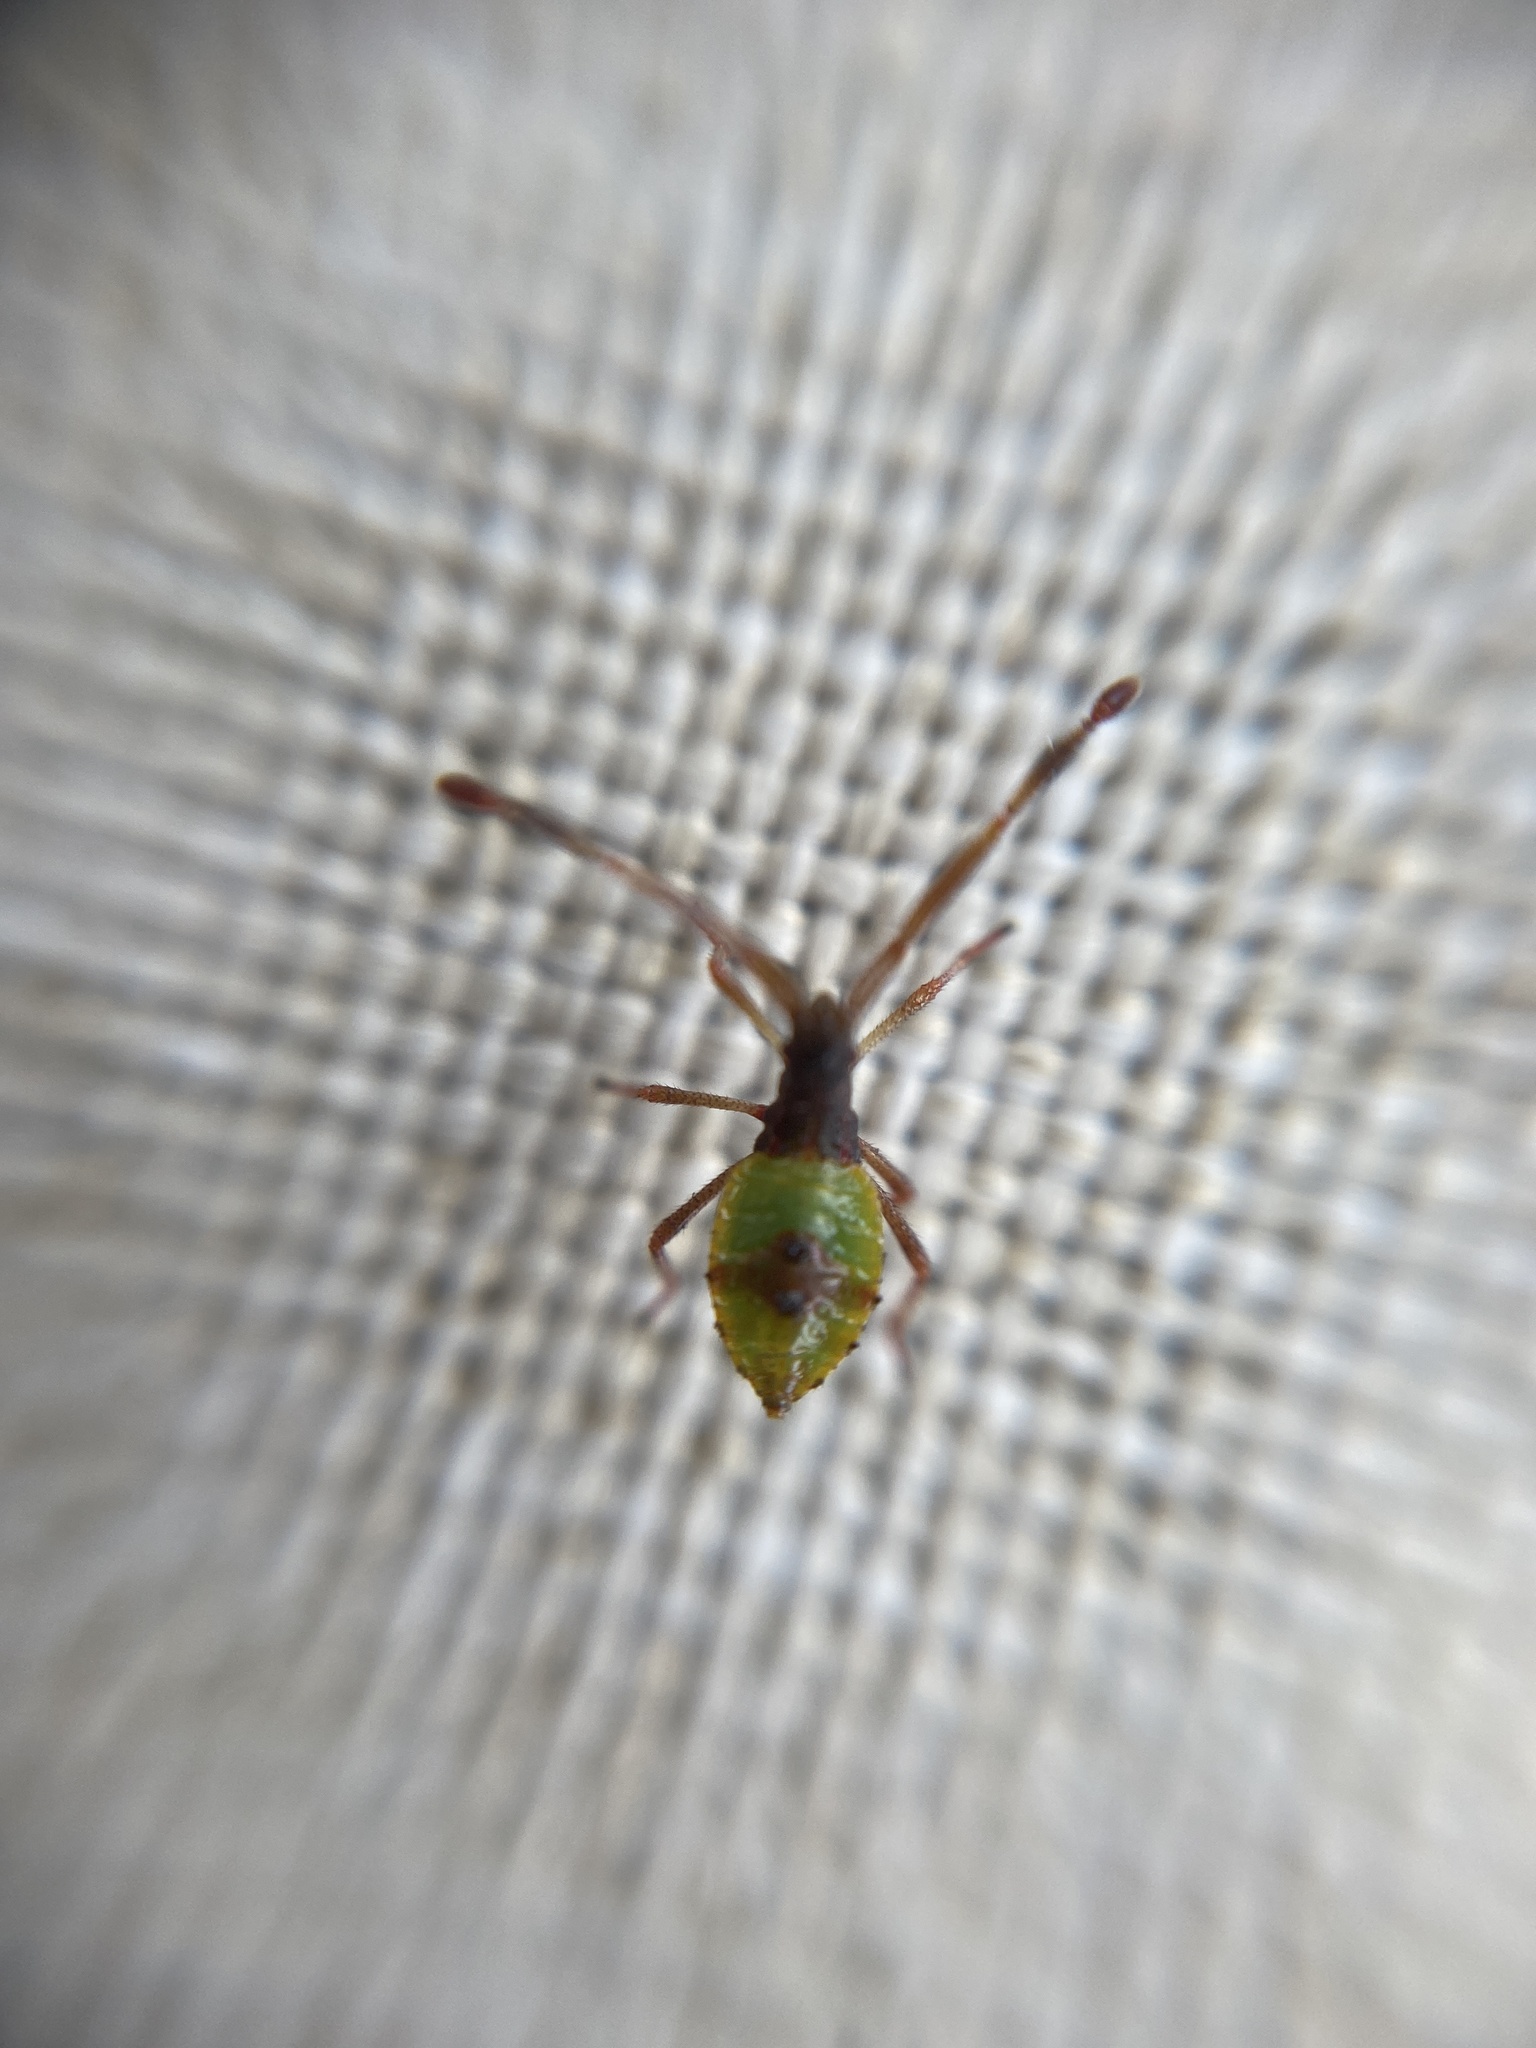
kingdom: Animalia
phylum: Arthropoda
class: Insecta
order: Hemiptera
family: Coreidae
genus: Gonocerus
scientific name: Gonocerus acuteangulatus
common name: Box bug
